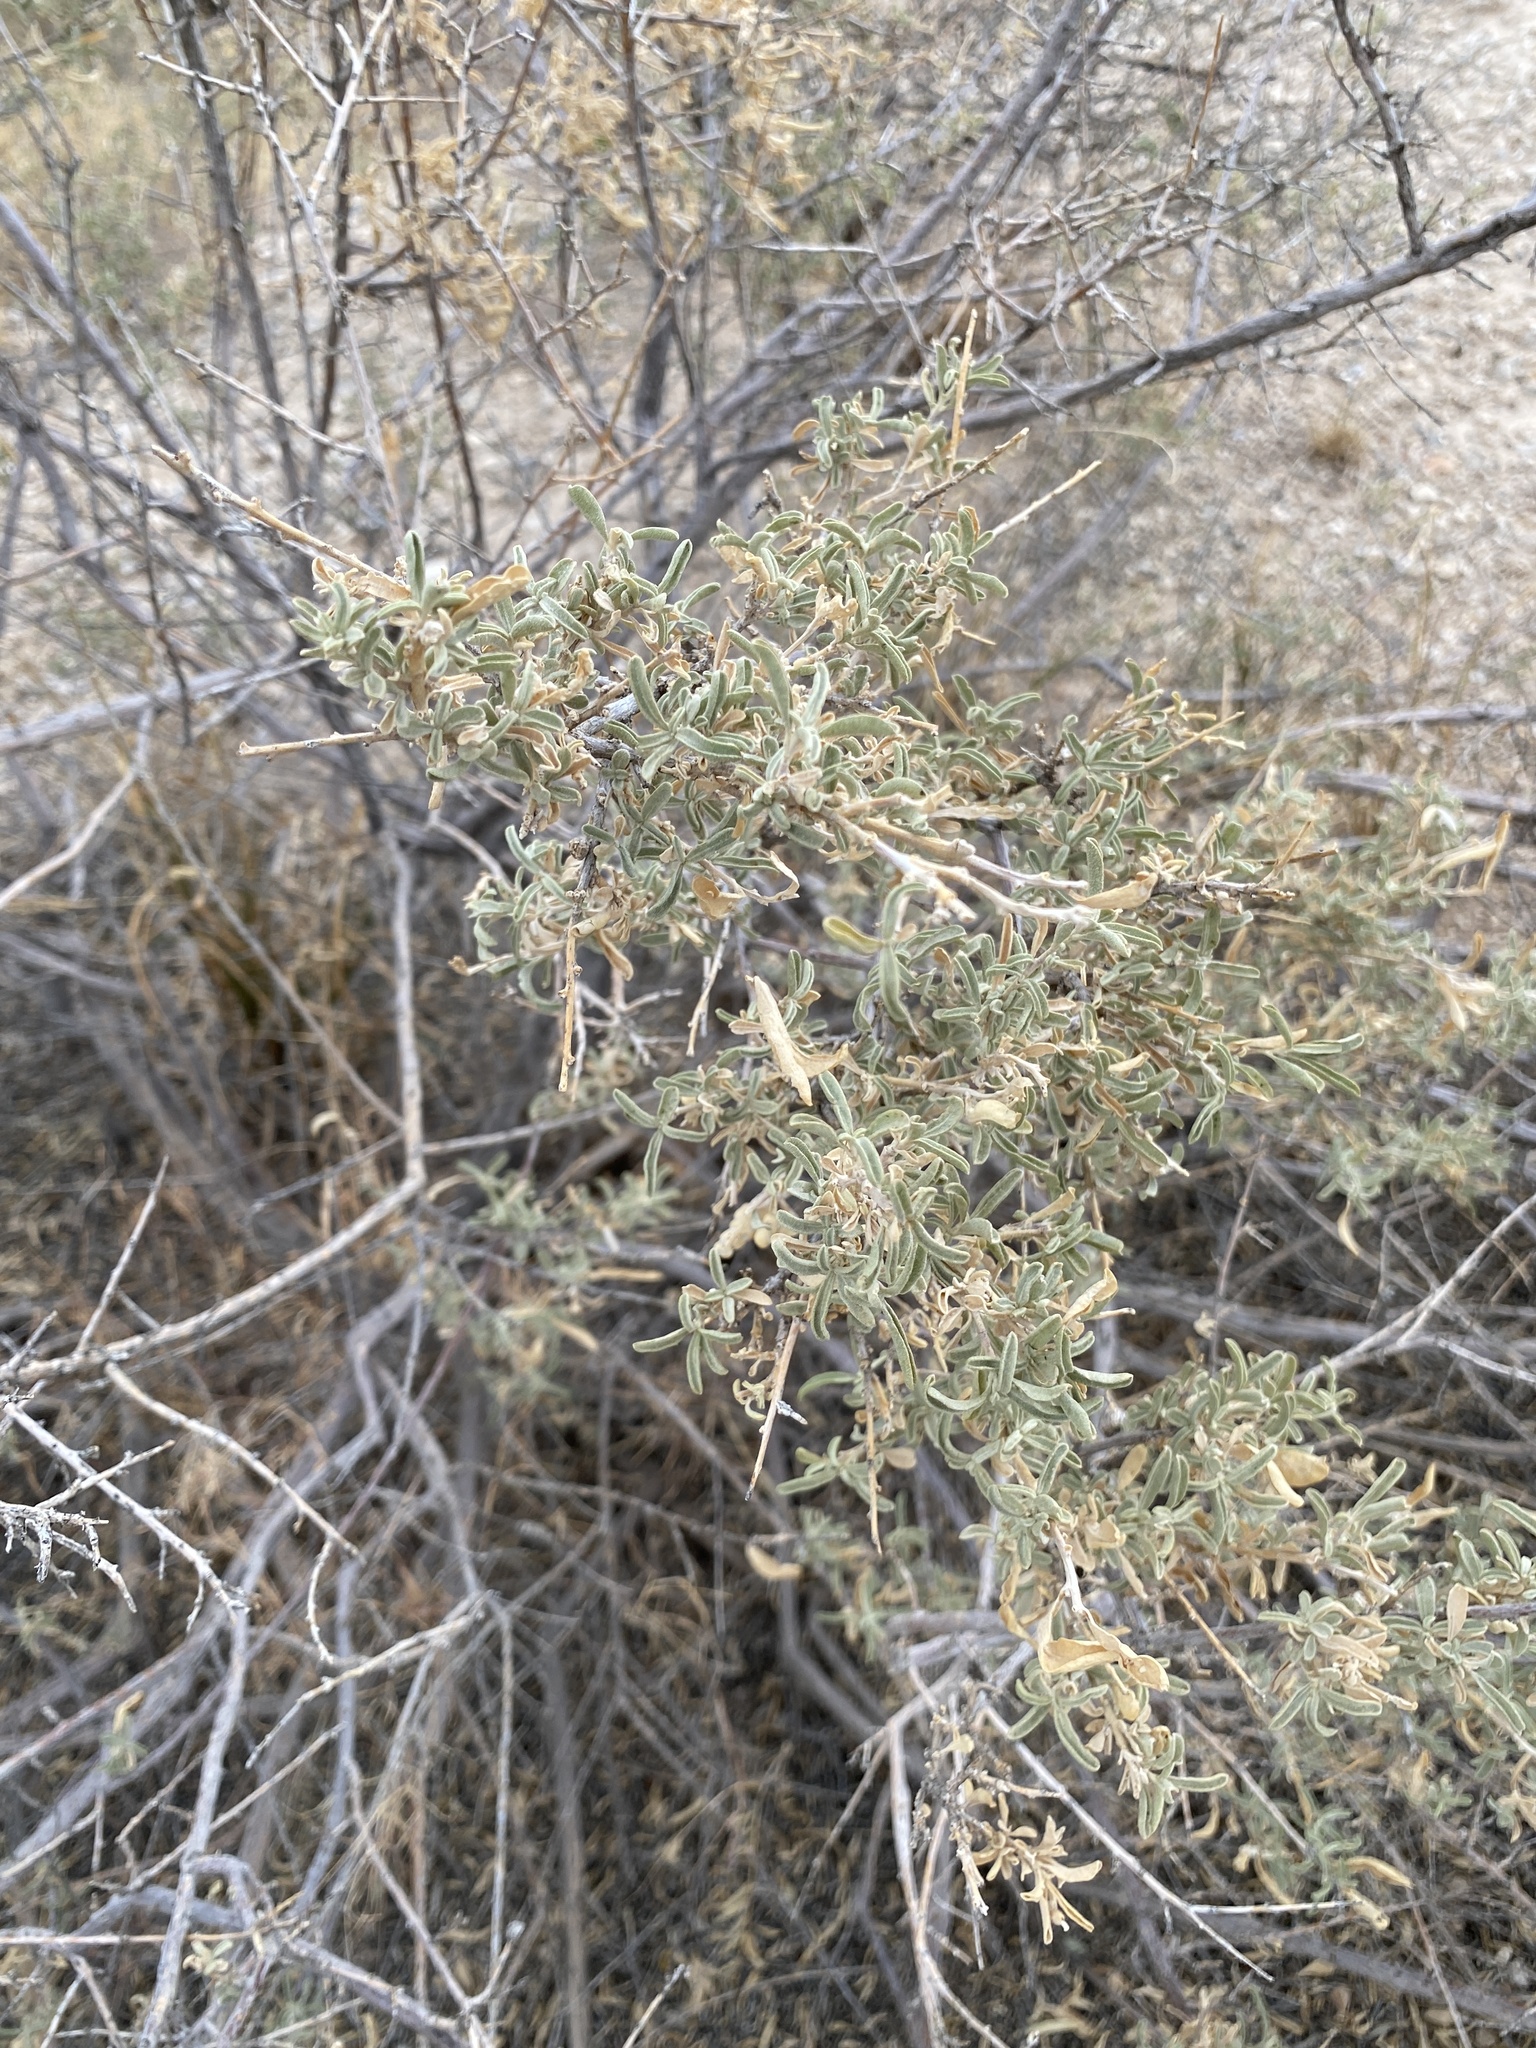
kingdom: Plantae
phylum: Tracheophyta
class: Magnoliopsida
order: Caryophyllales
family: Amaranthaceae
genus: Atriplex
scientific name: Atriplex canescens
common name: Four-wing saltbush
